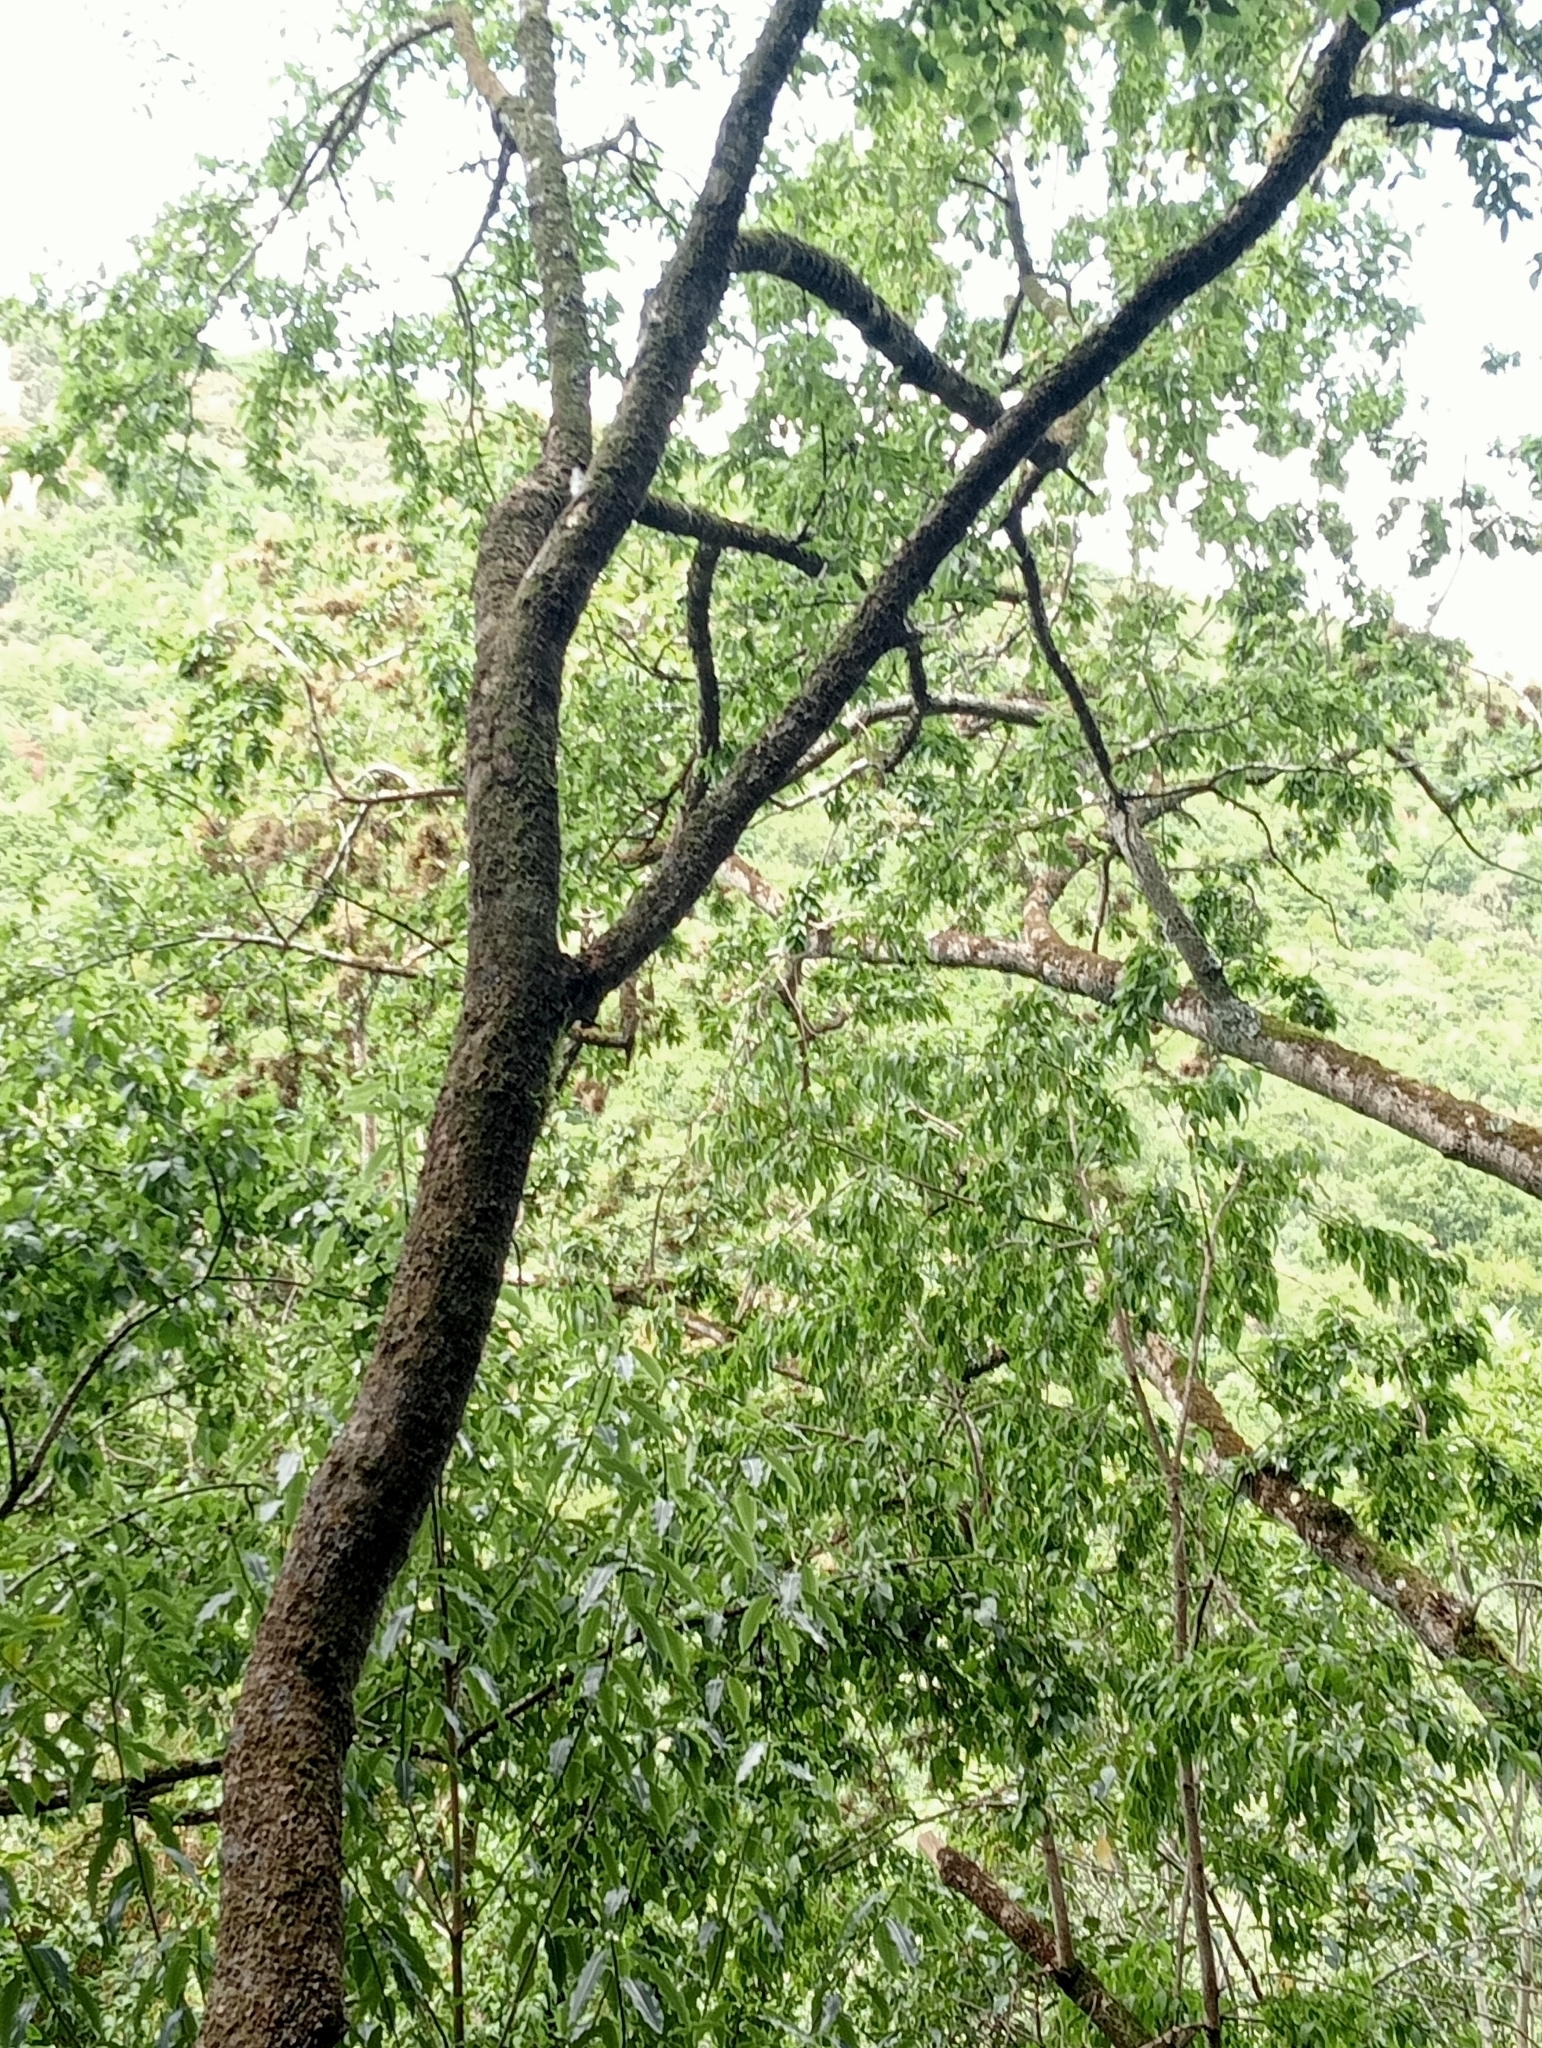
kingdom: Plantae
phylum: Tracheophyta
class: Magnoliopsida
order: Malvales
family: Malvaceae
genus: Plagianthus
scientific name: Plagianthus regius
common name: Manatu
